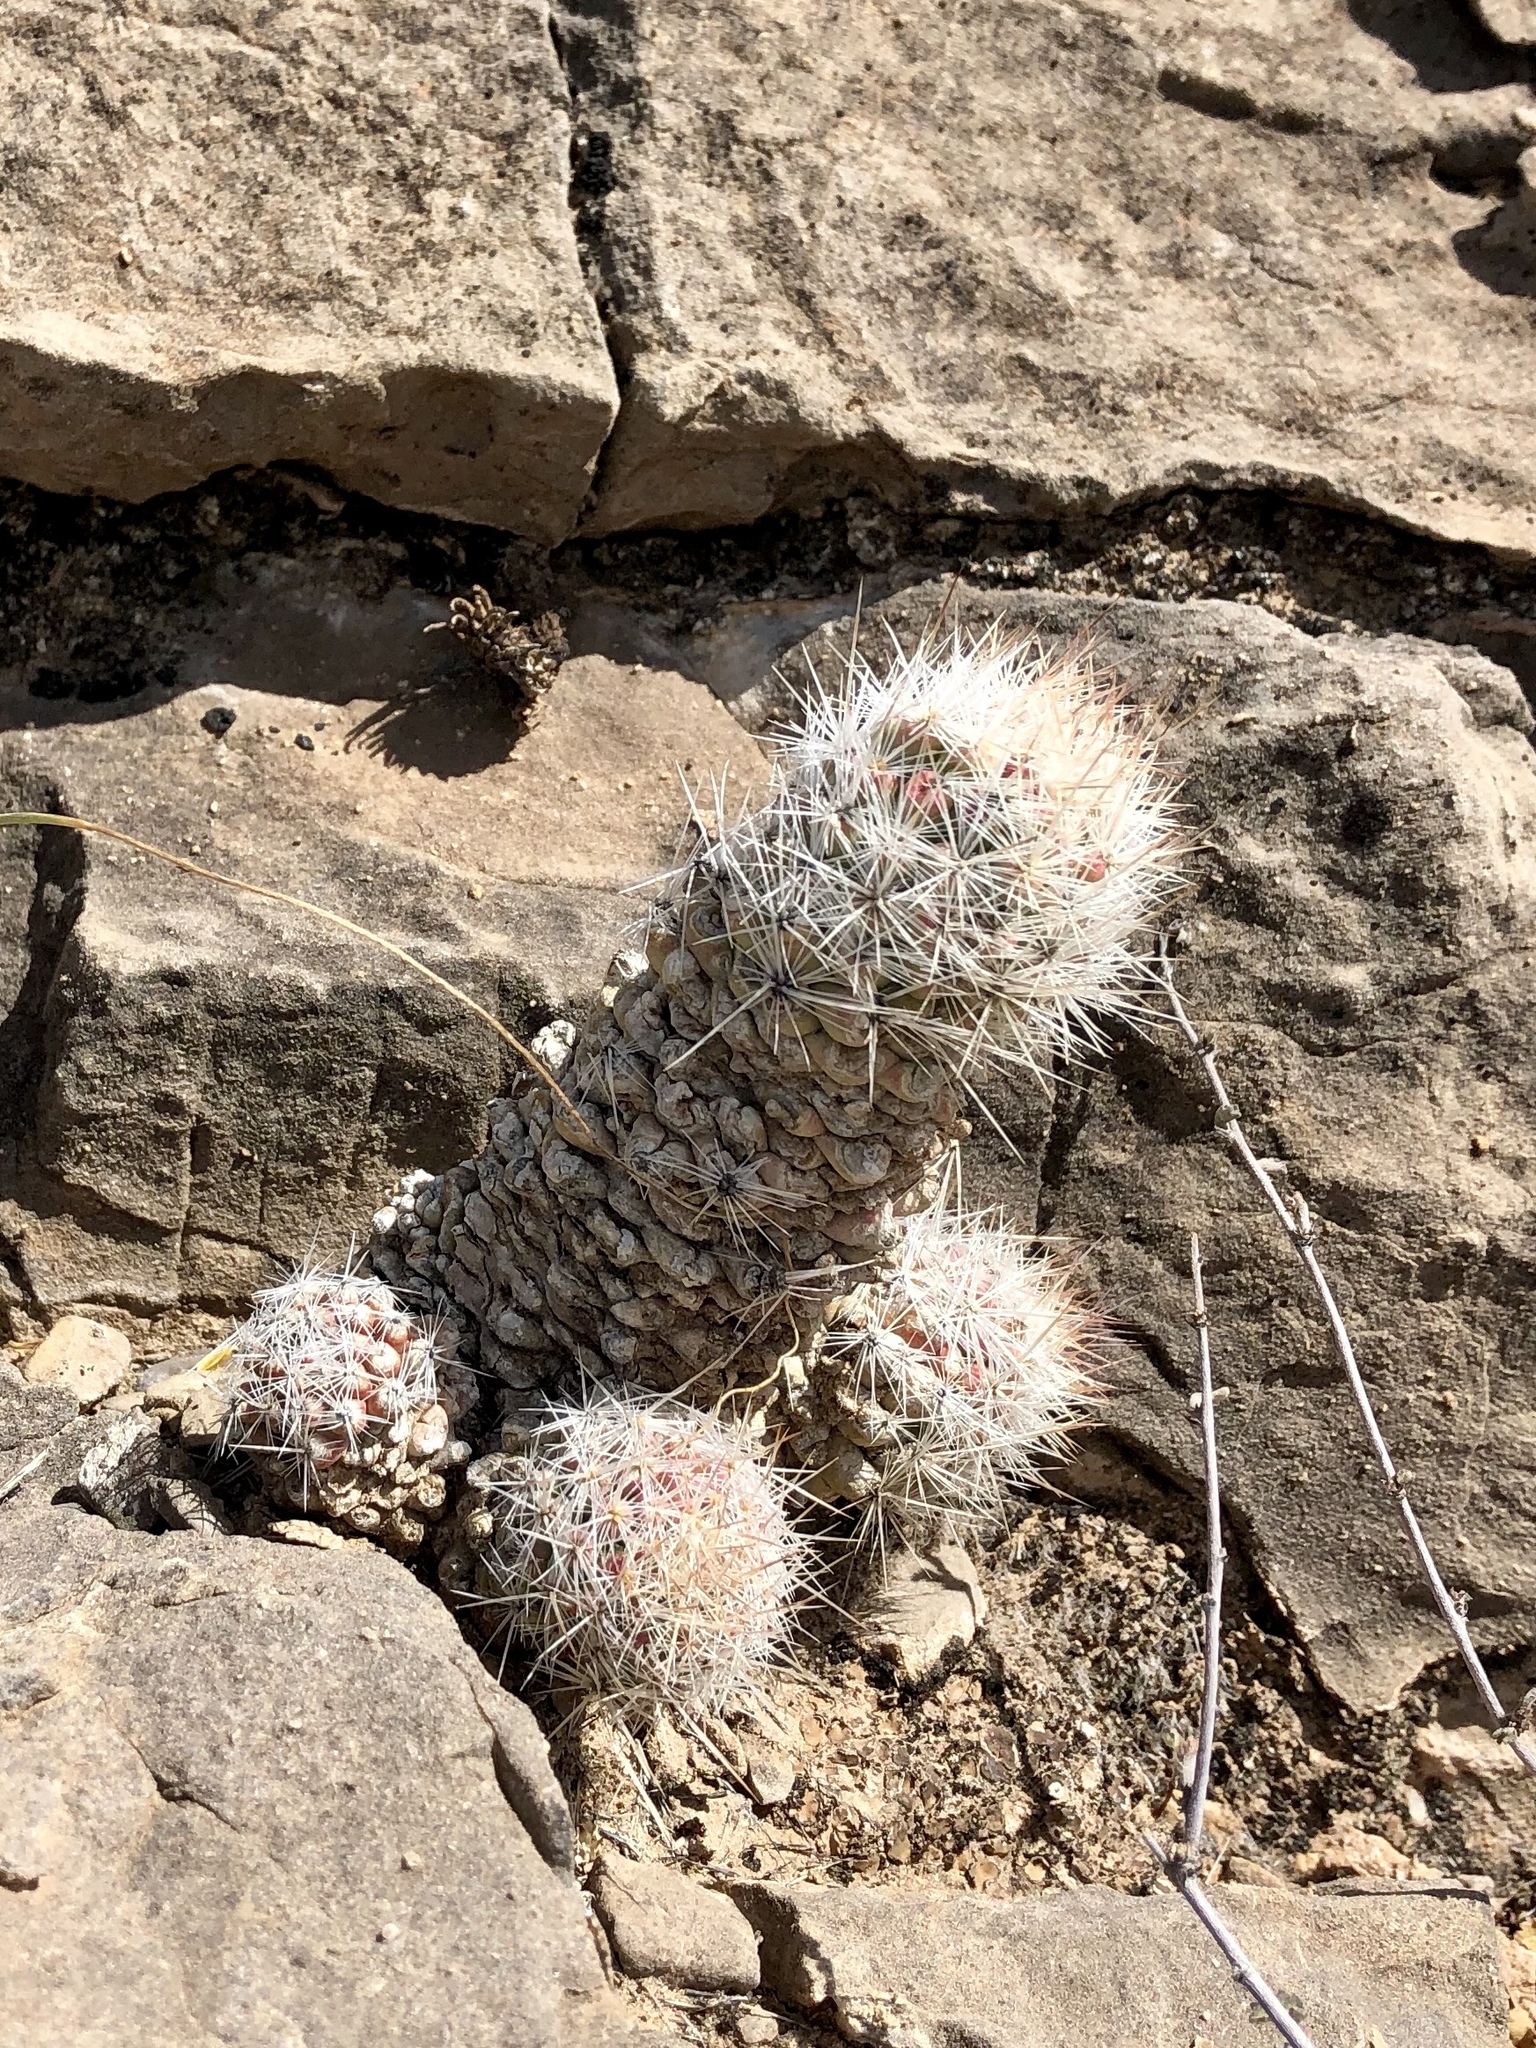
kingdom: Plantae
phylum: Tracheophyta
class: Magnoliopsida
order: Caryophyllales
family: Cactaceae
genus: Pelecyphora
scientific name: Pelecyphora tuberculosa
